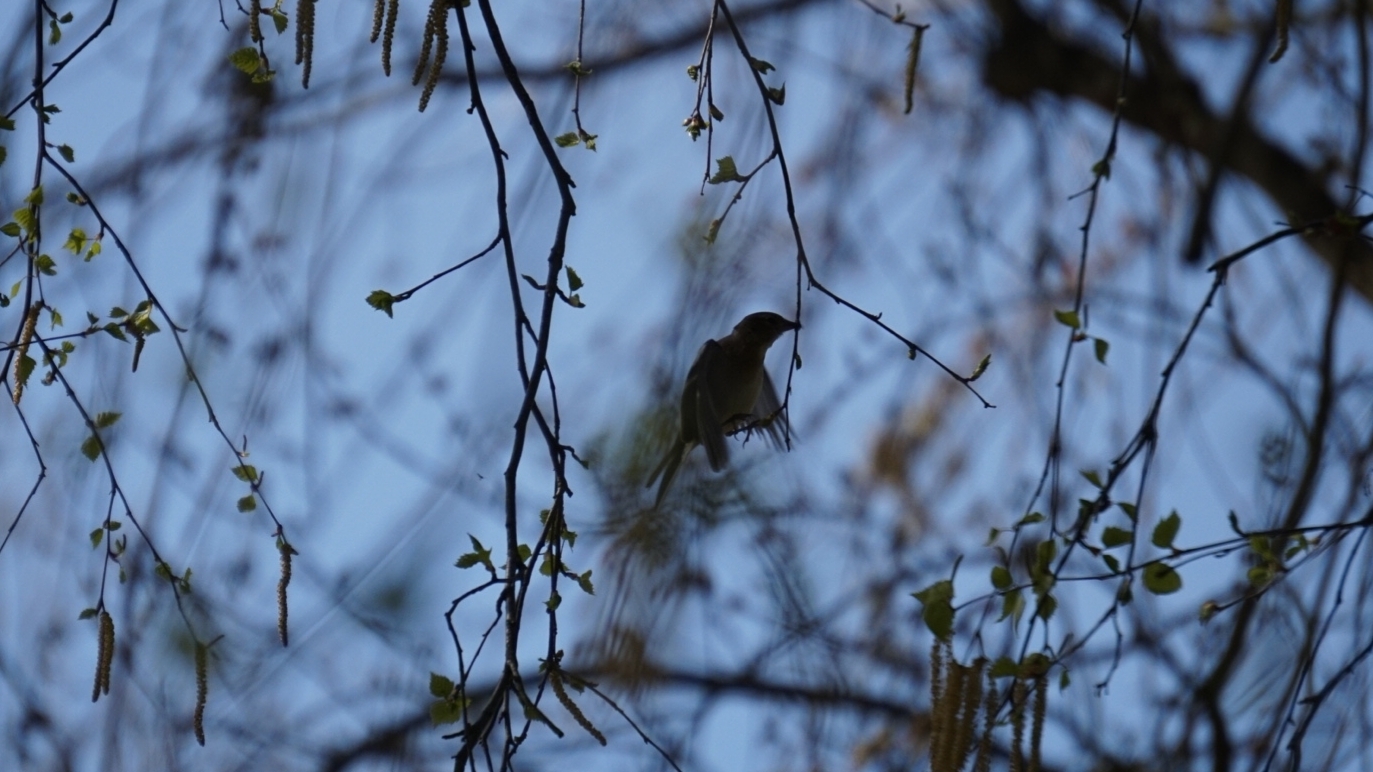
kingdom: Animalia
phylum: Chordata
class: Aves
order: Passeriformes
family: Fringillidae
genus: Fringilla
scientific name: Fringilla coelebs
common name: Common chaffinch
